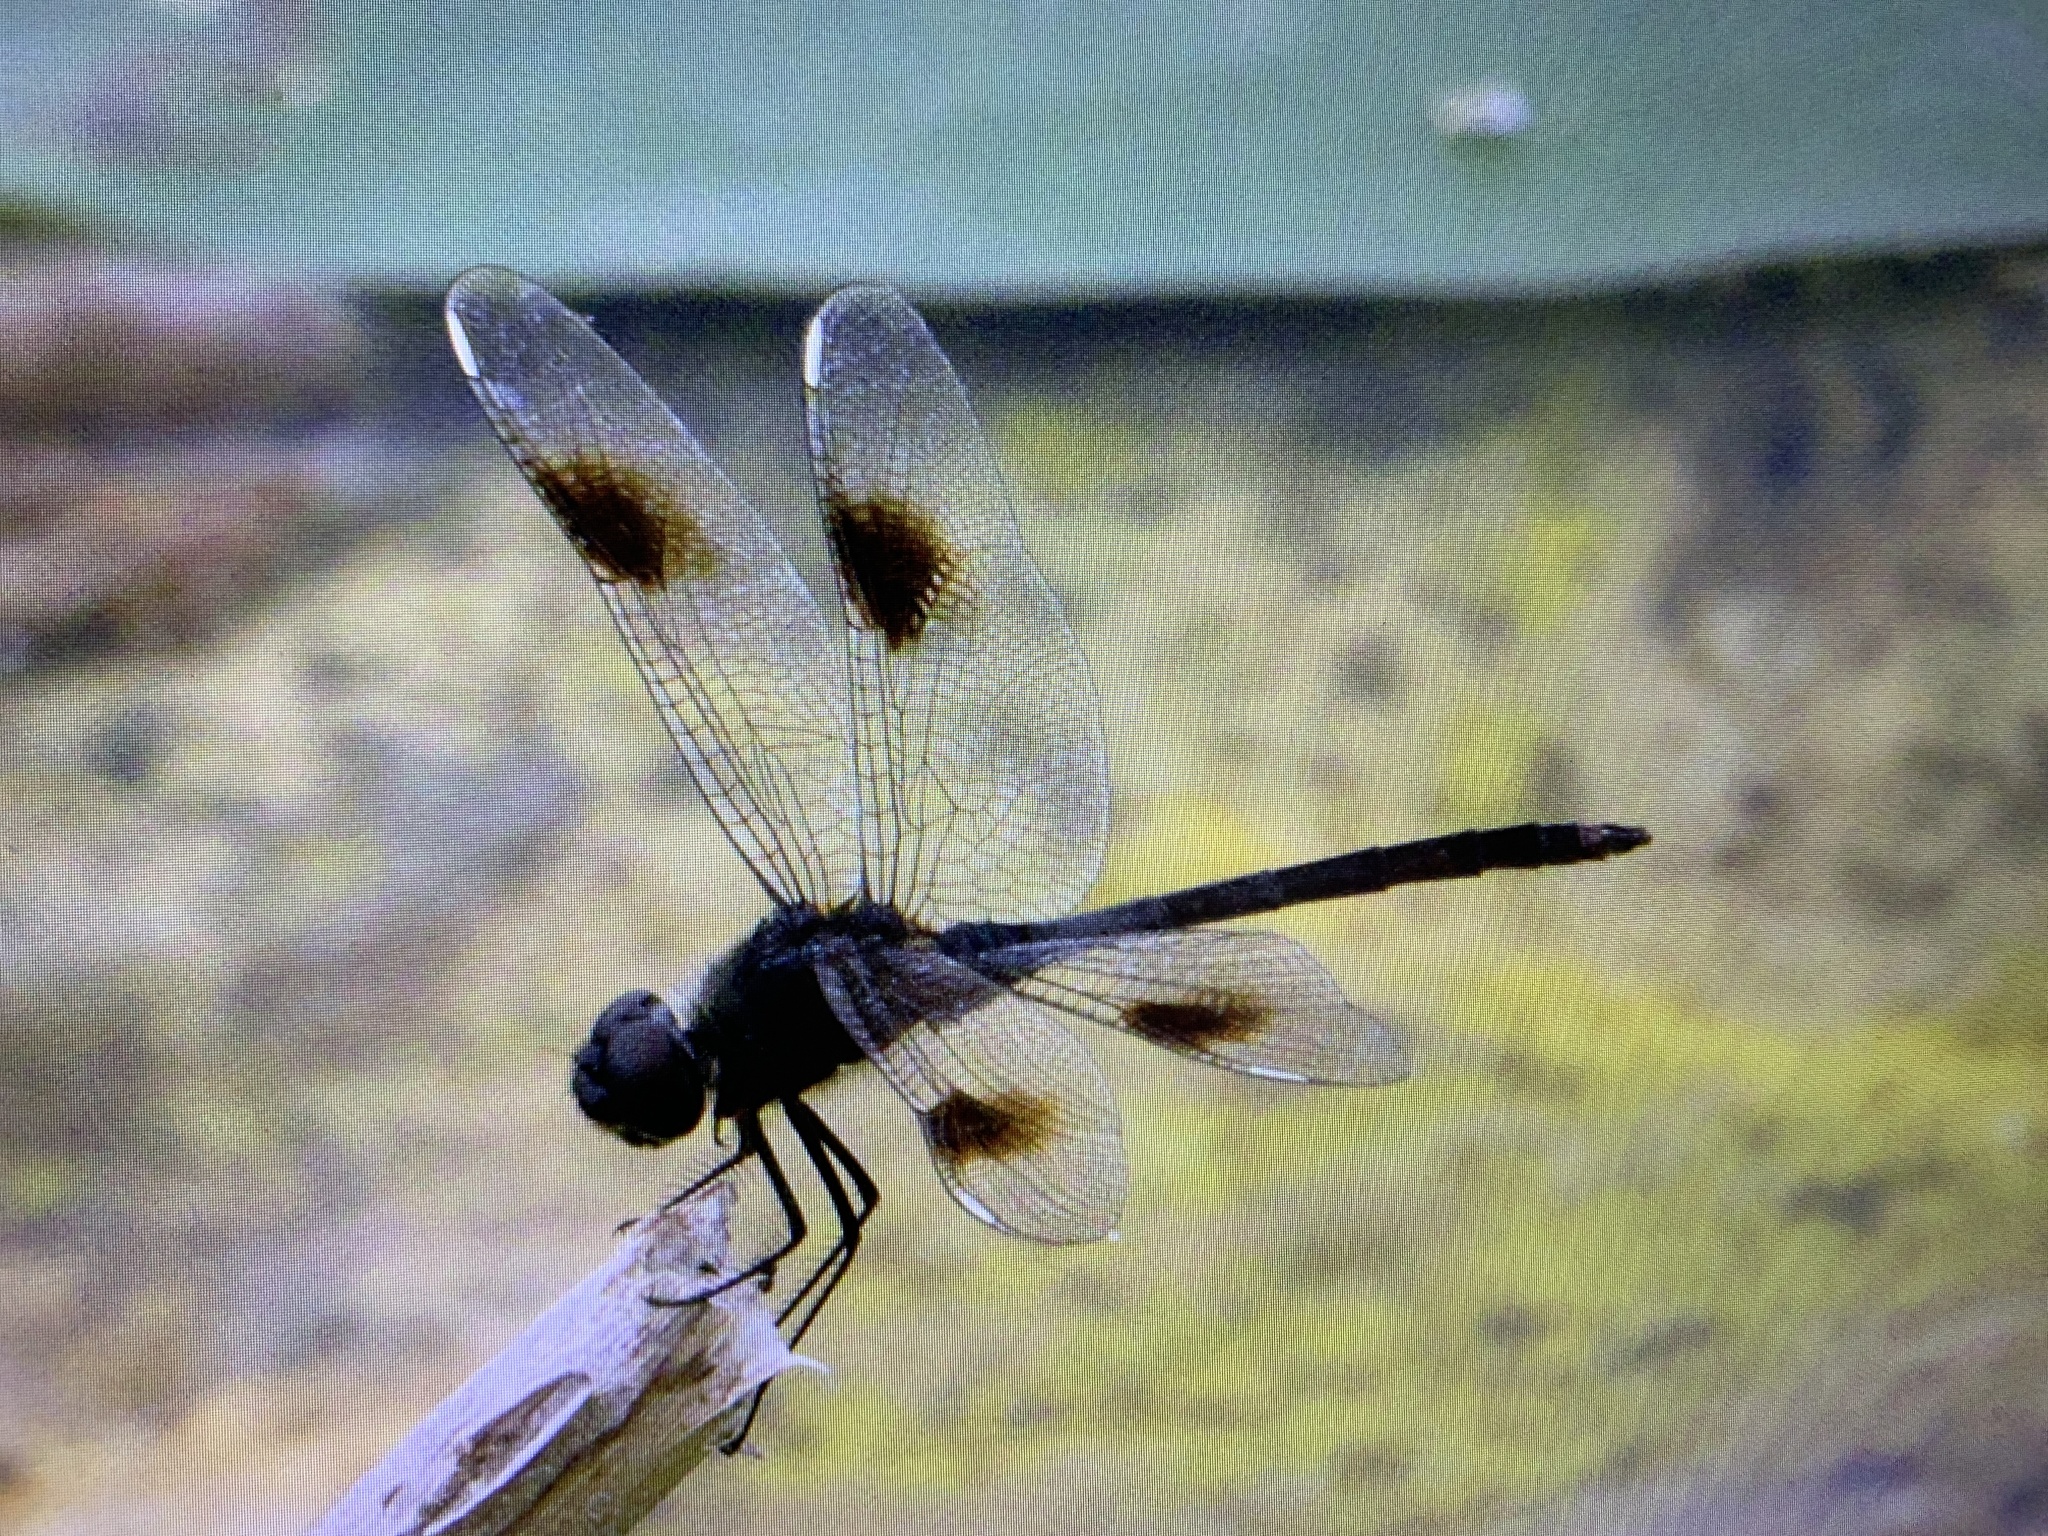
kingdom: Animalia
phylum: Arthropoda
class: Insecta
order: Odonata
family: Libellulidae
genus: Brachymesia
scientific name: Brachymesia gravida
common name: Four-spotted pennant
